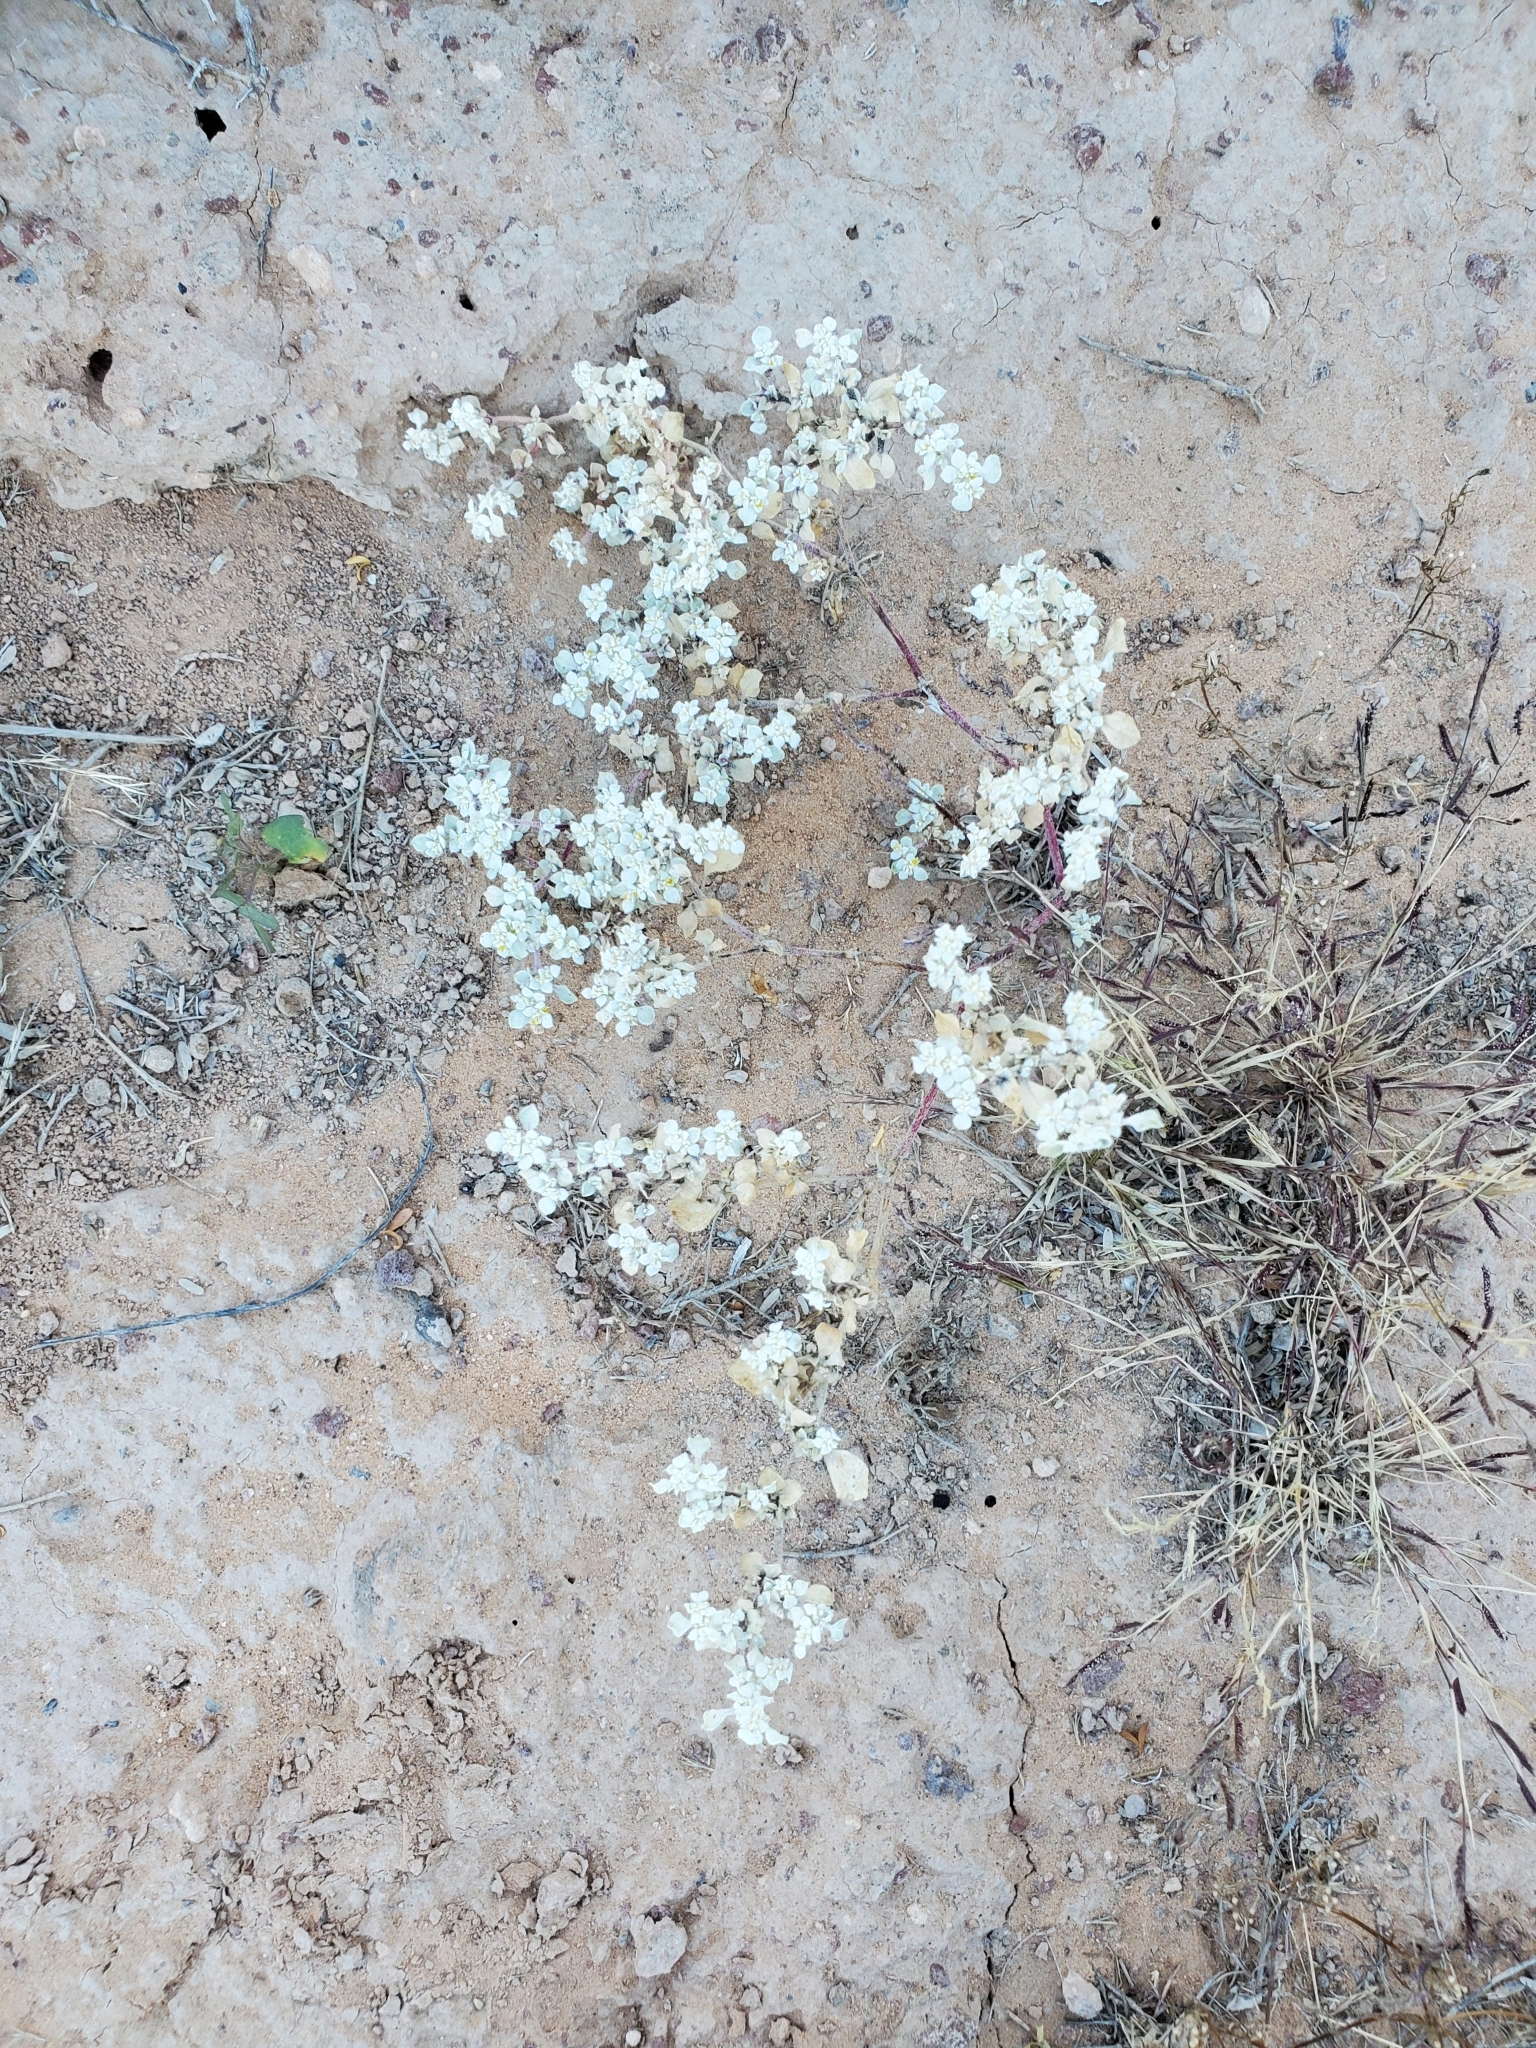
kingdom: Plantae
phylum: Tracheophyta
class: Magnoliopsida
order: Caryophyllales
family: Amaranthaceae
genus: Tidestromia
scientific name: Tidestromia lanuginosa
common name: Woolly tidestromia
